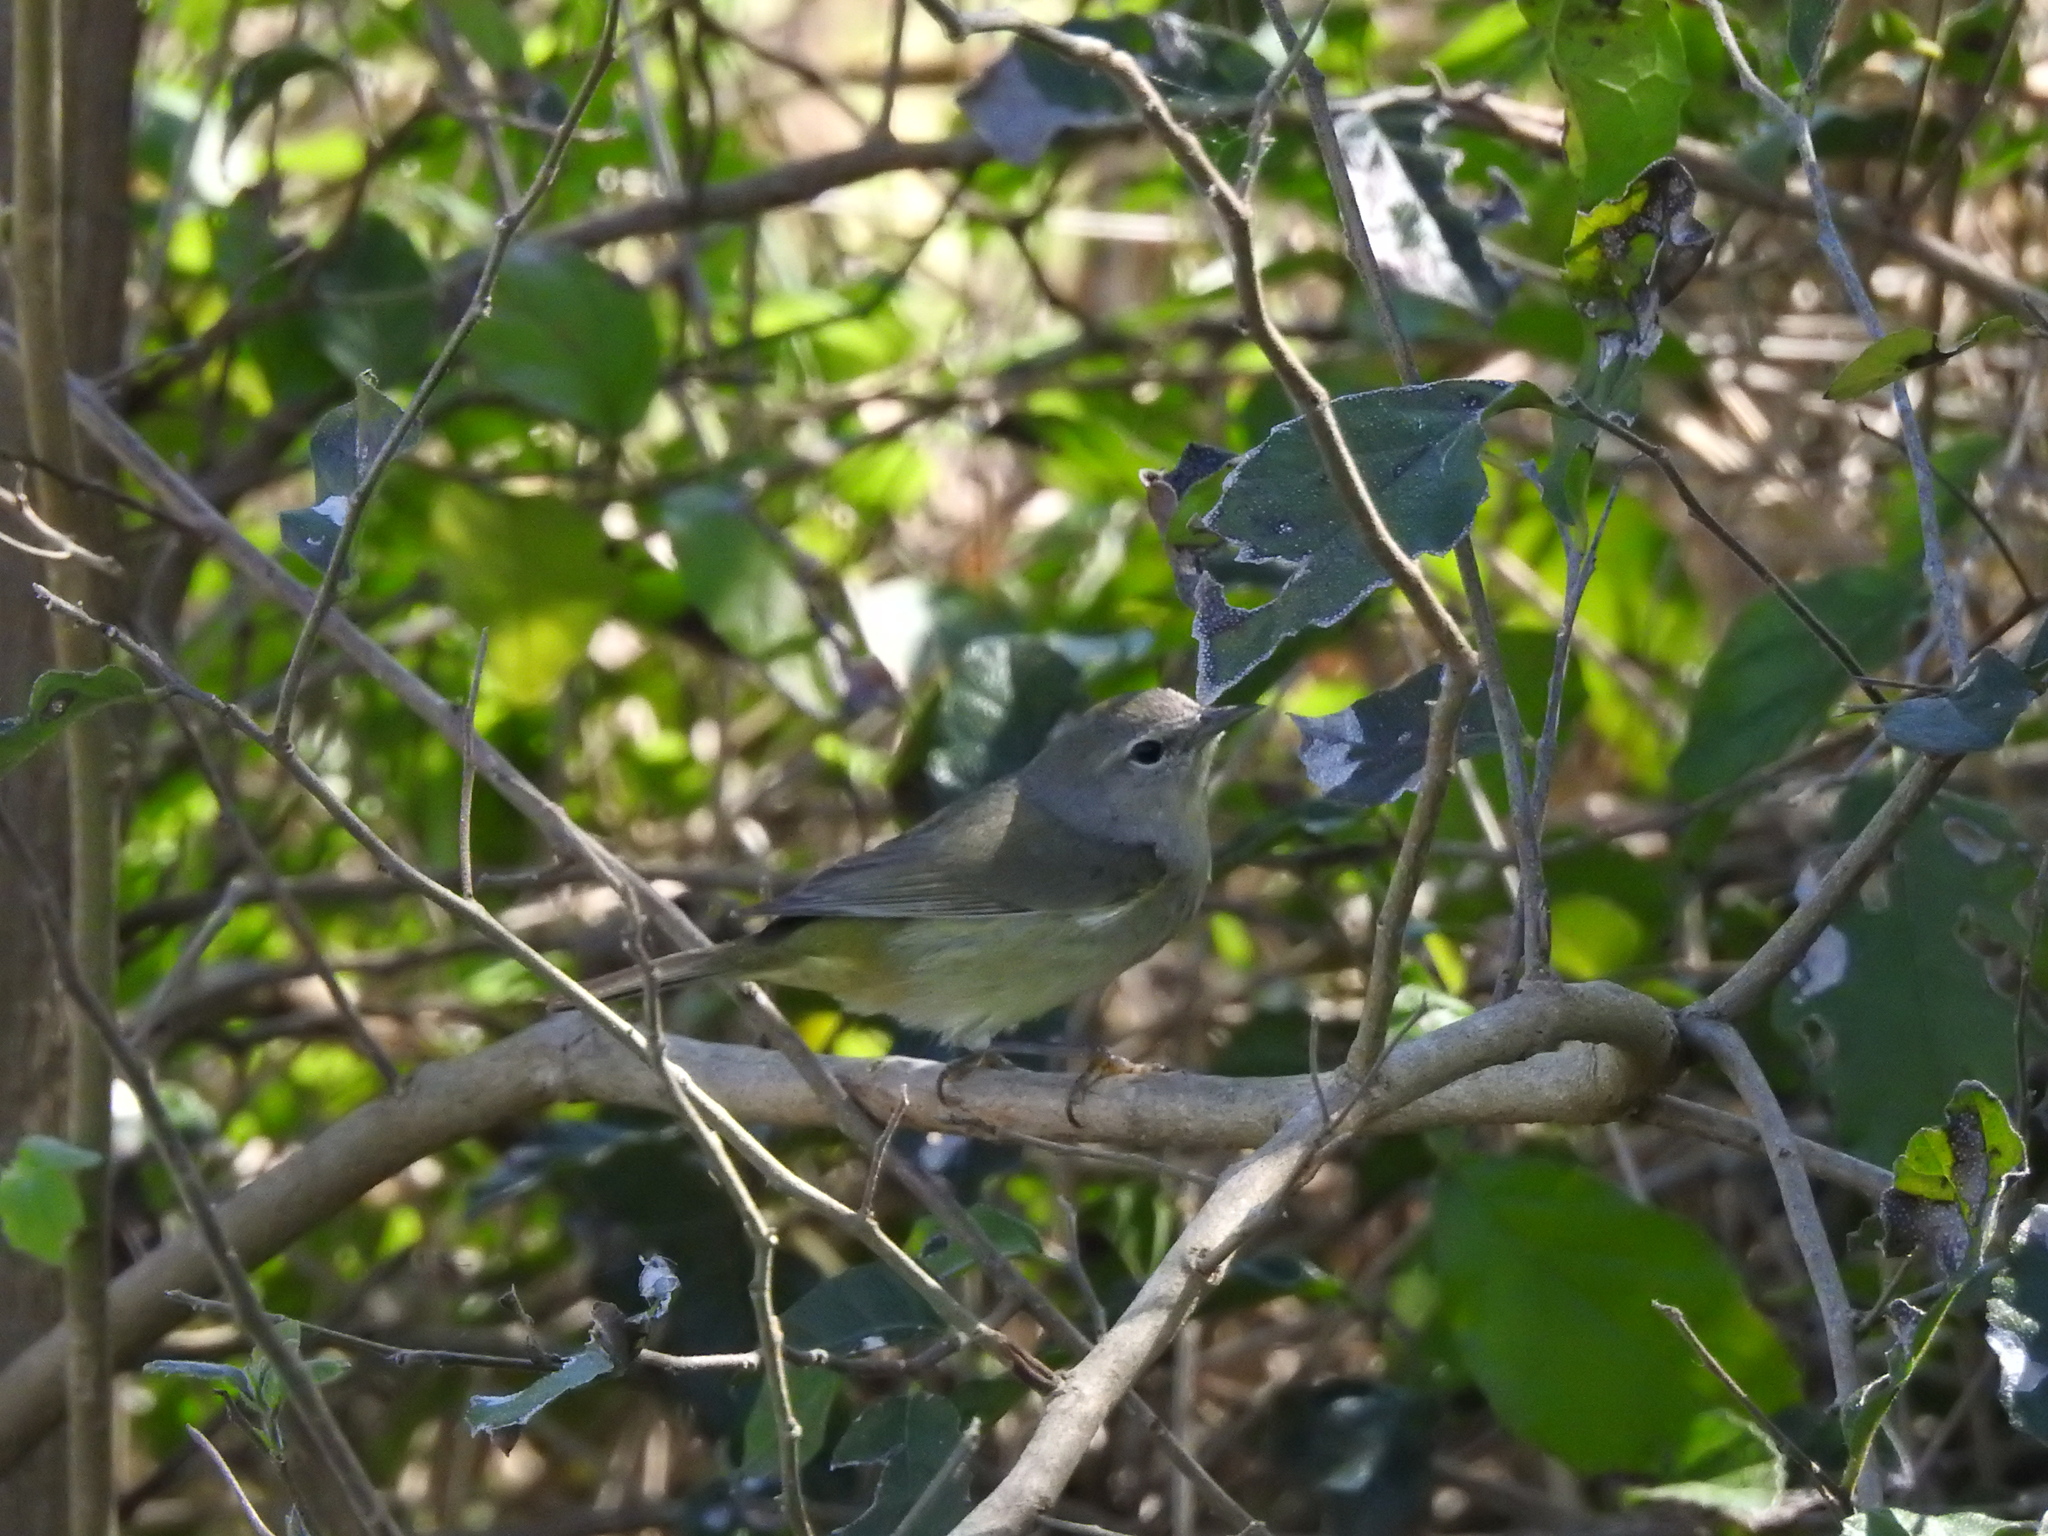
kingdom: Animalia
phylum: Chordata
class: Aves
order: Passeriformes
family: Parulidae
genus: Leiothlypis
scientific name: Leiothlypis celata
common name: Orange-crowned warbler
